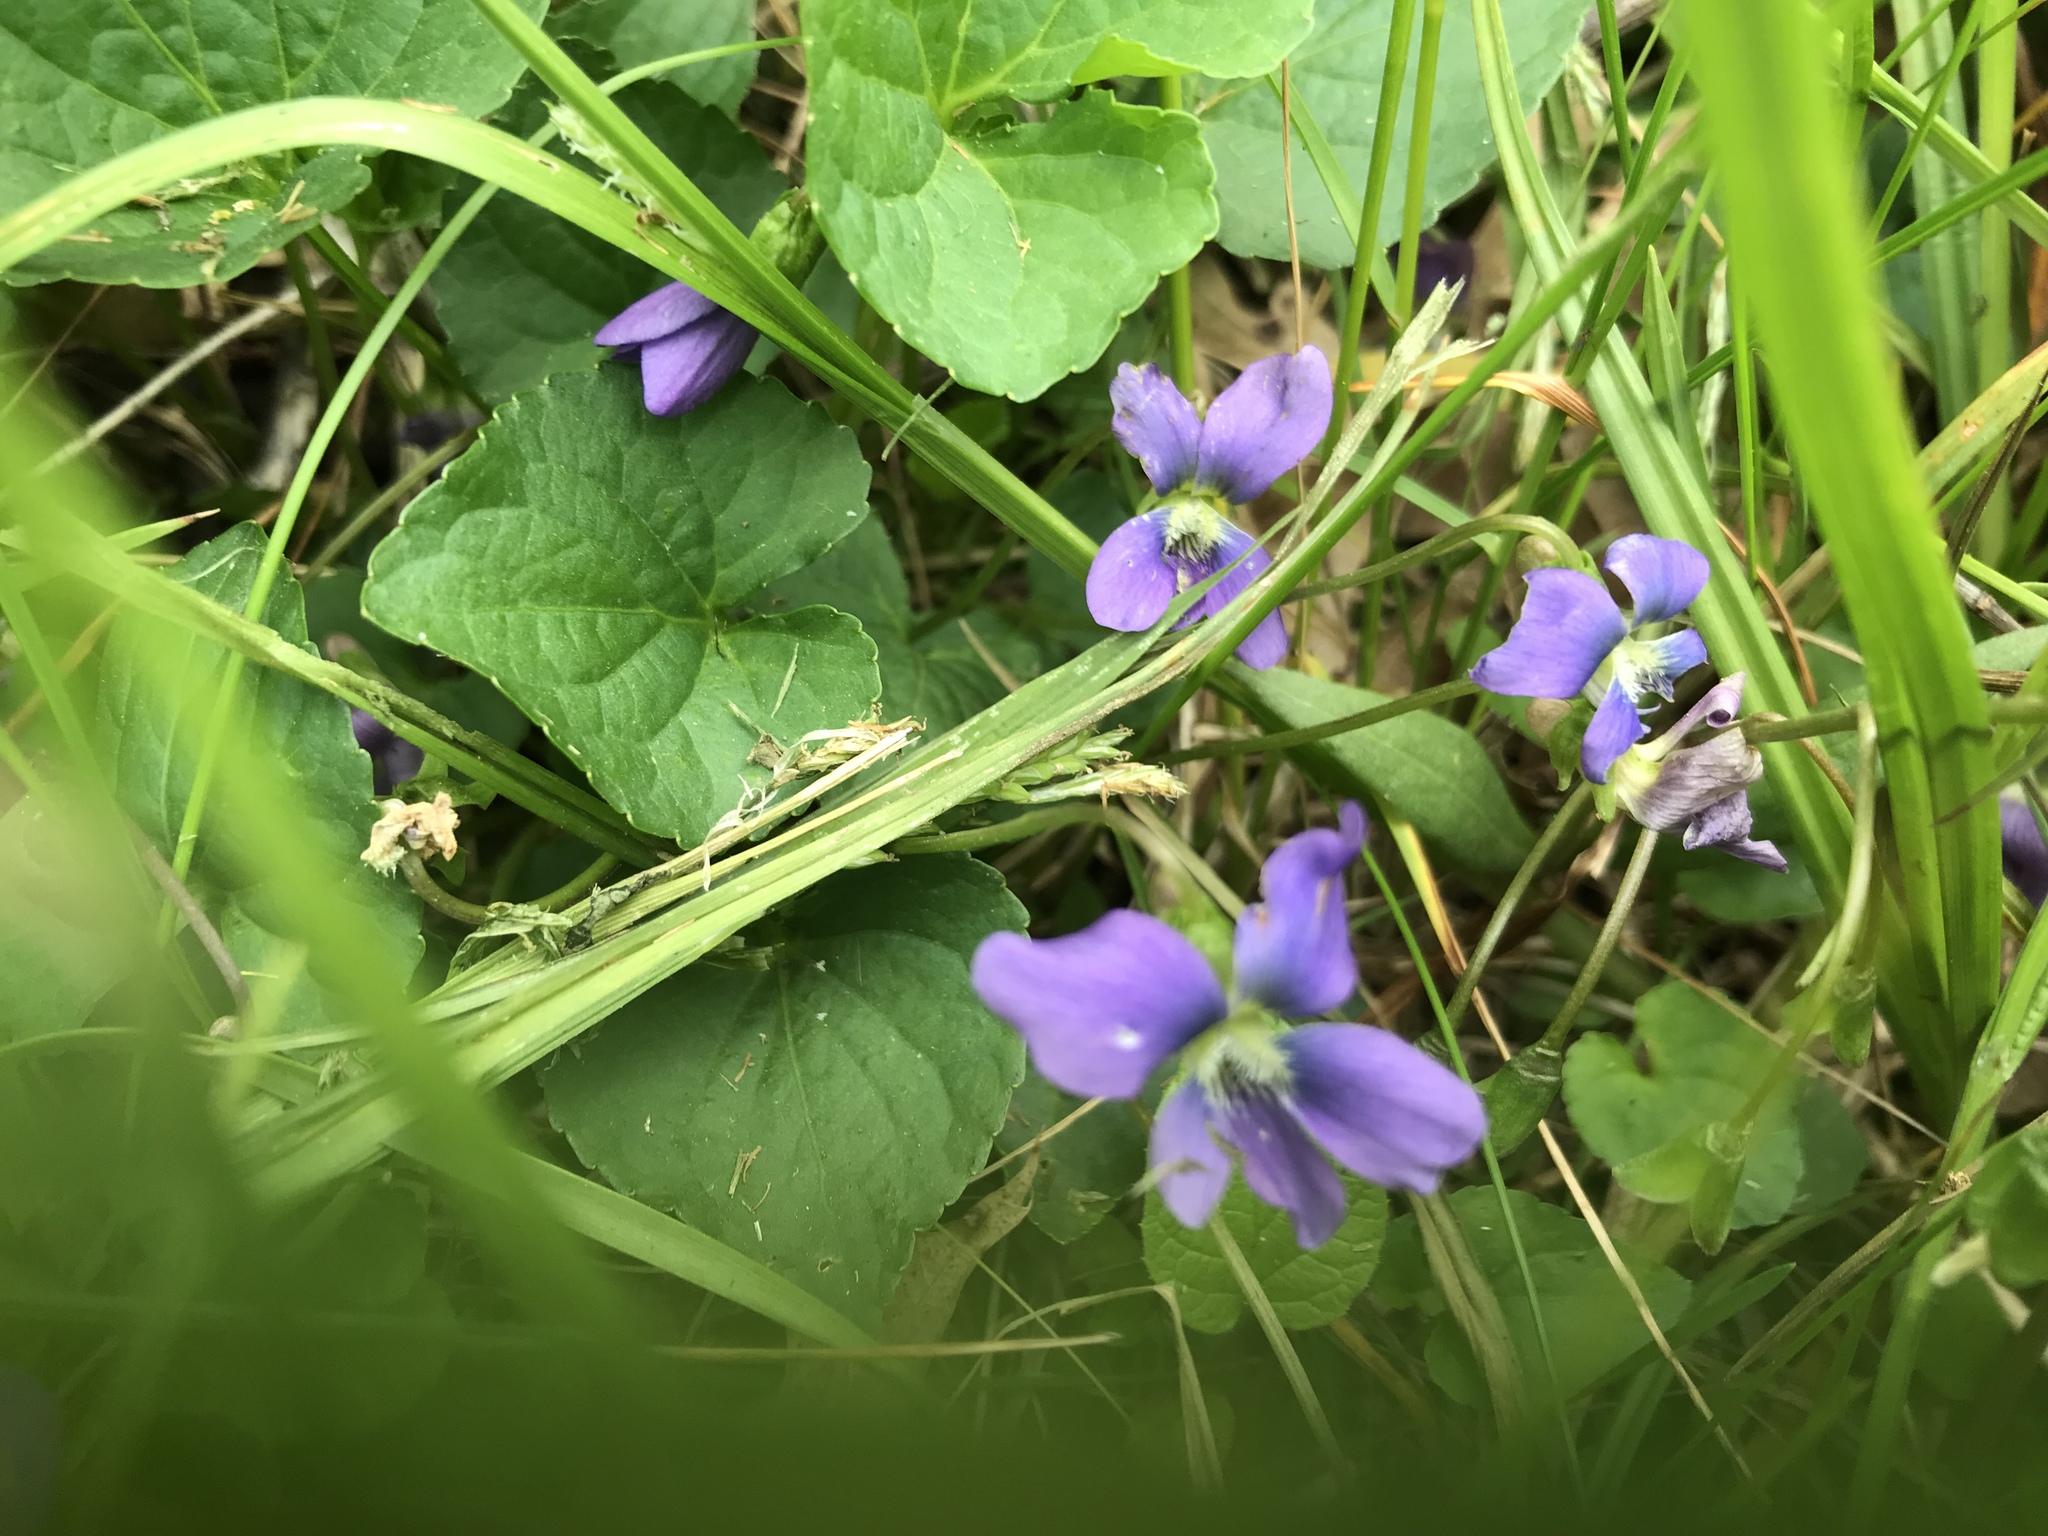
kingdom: Plantae
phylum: Tracheophyta
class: Magnoliopsida
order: Malpighiales
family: Violaceae
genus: Viola
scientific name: Viola sororia
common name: Dooryard violet
